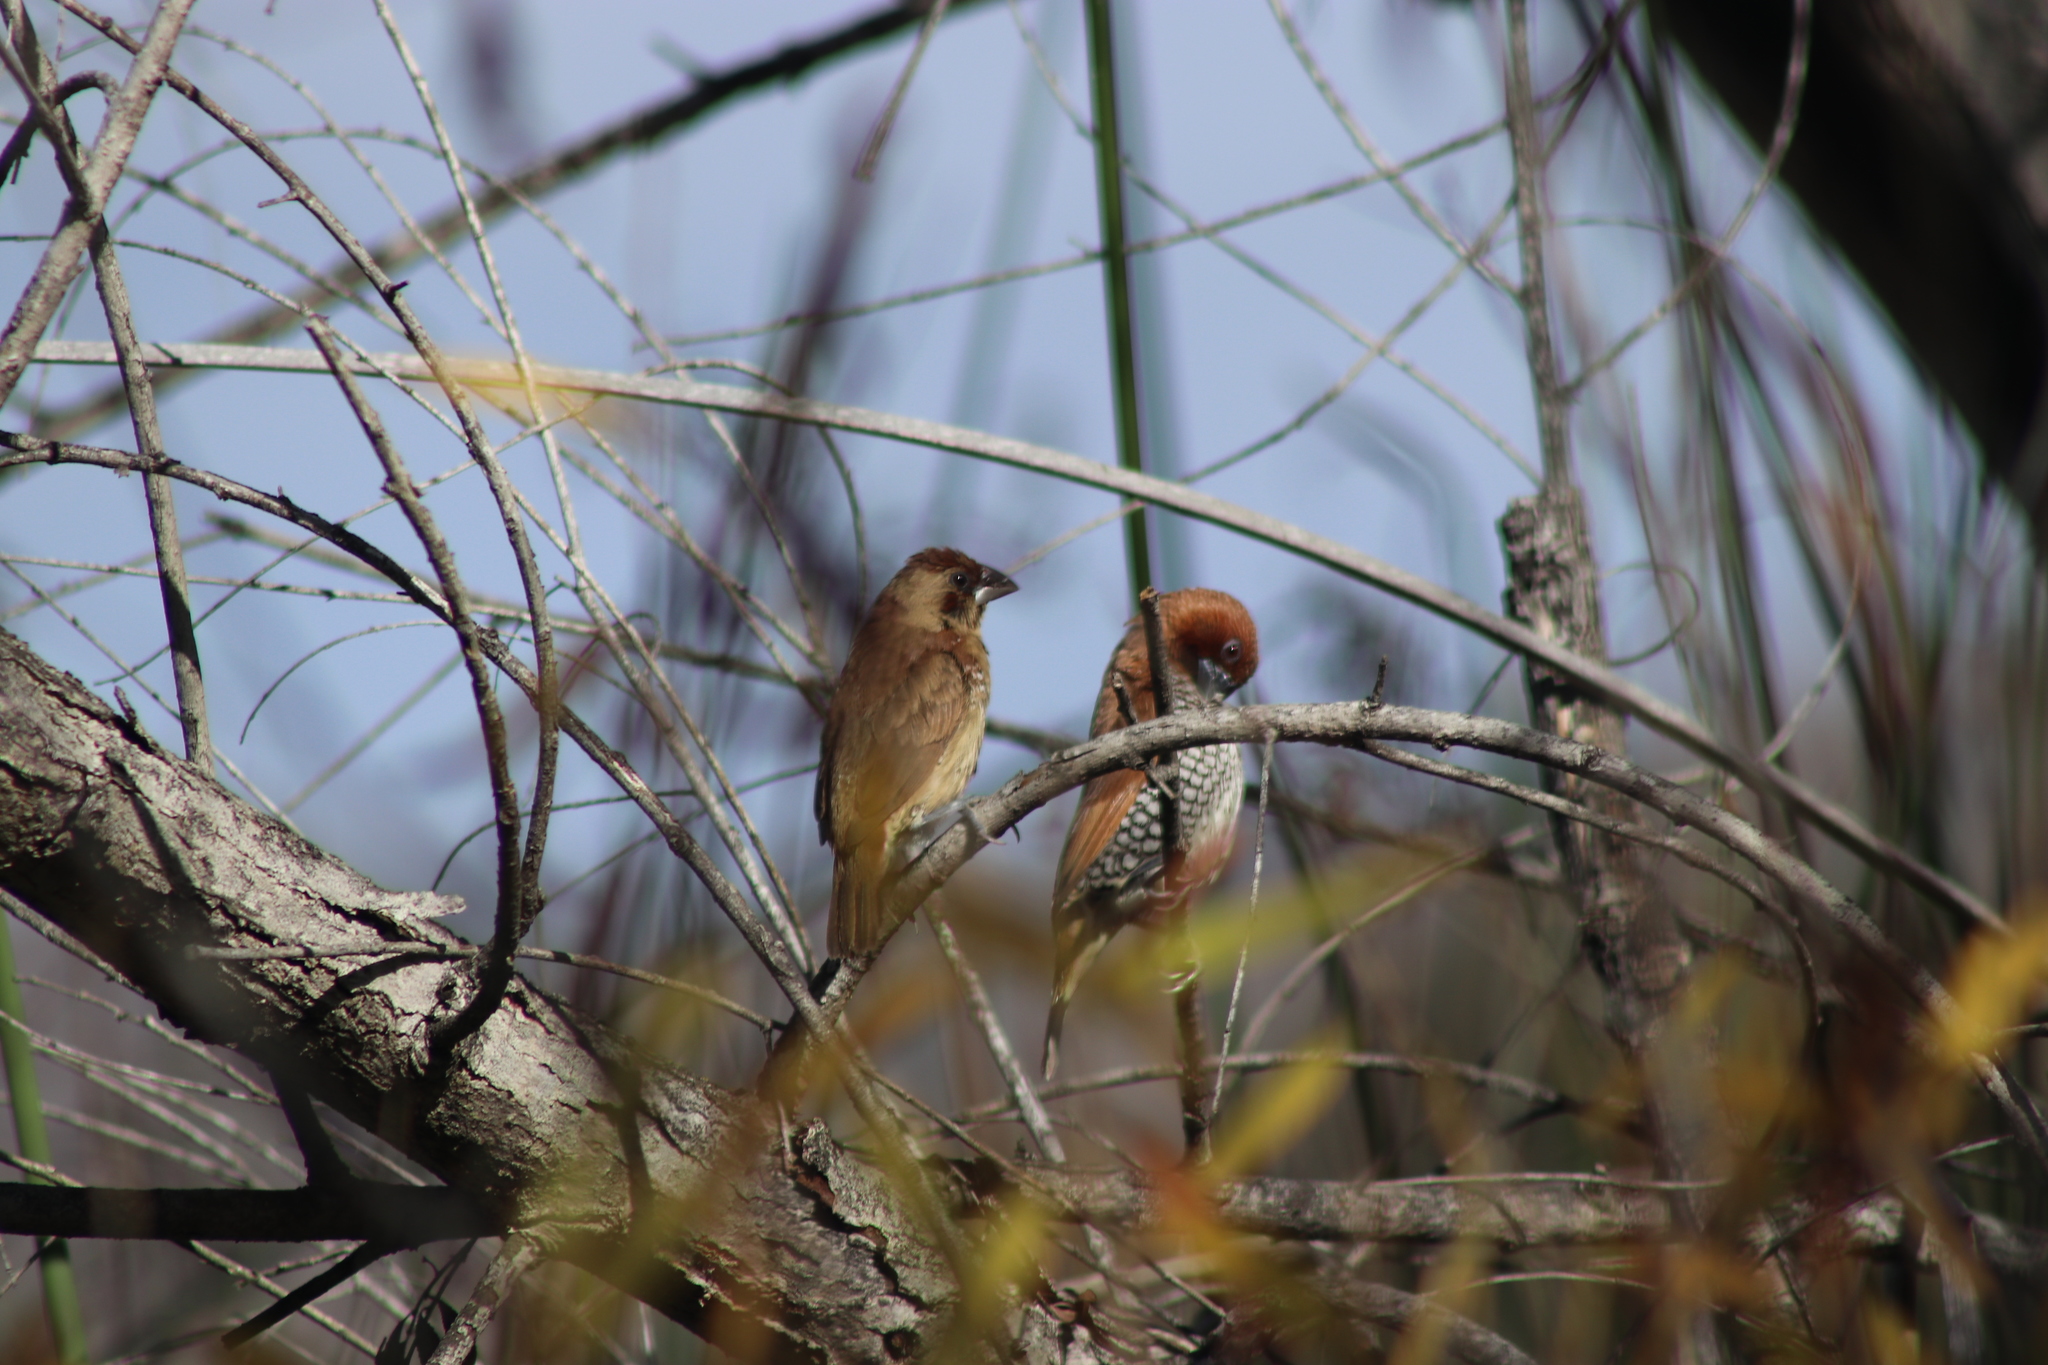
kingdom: Animalia
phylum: Chordata
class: Aves
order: Passeriformes
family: Estrildidae
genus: Lonchura
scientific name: Lonchura punctulata
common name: Scaly-breasted munia
